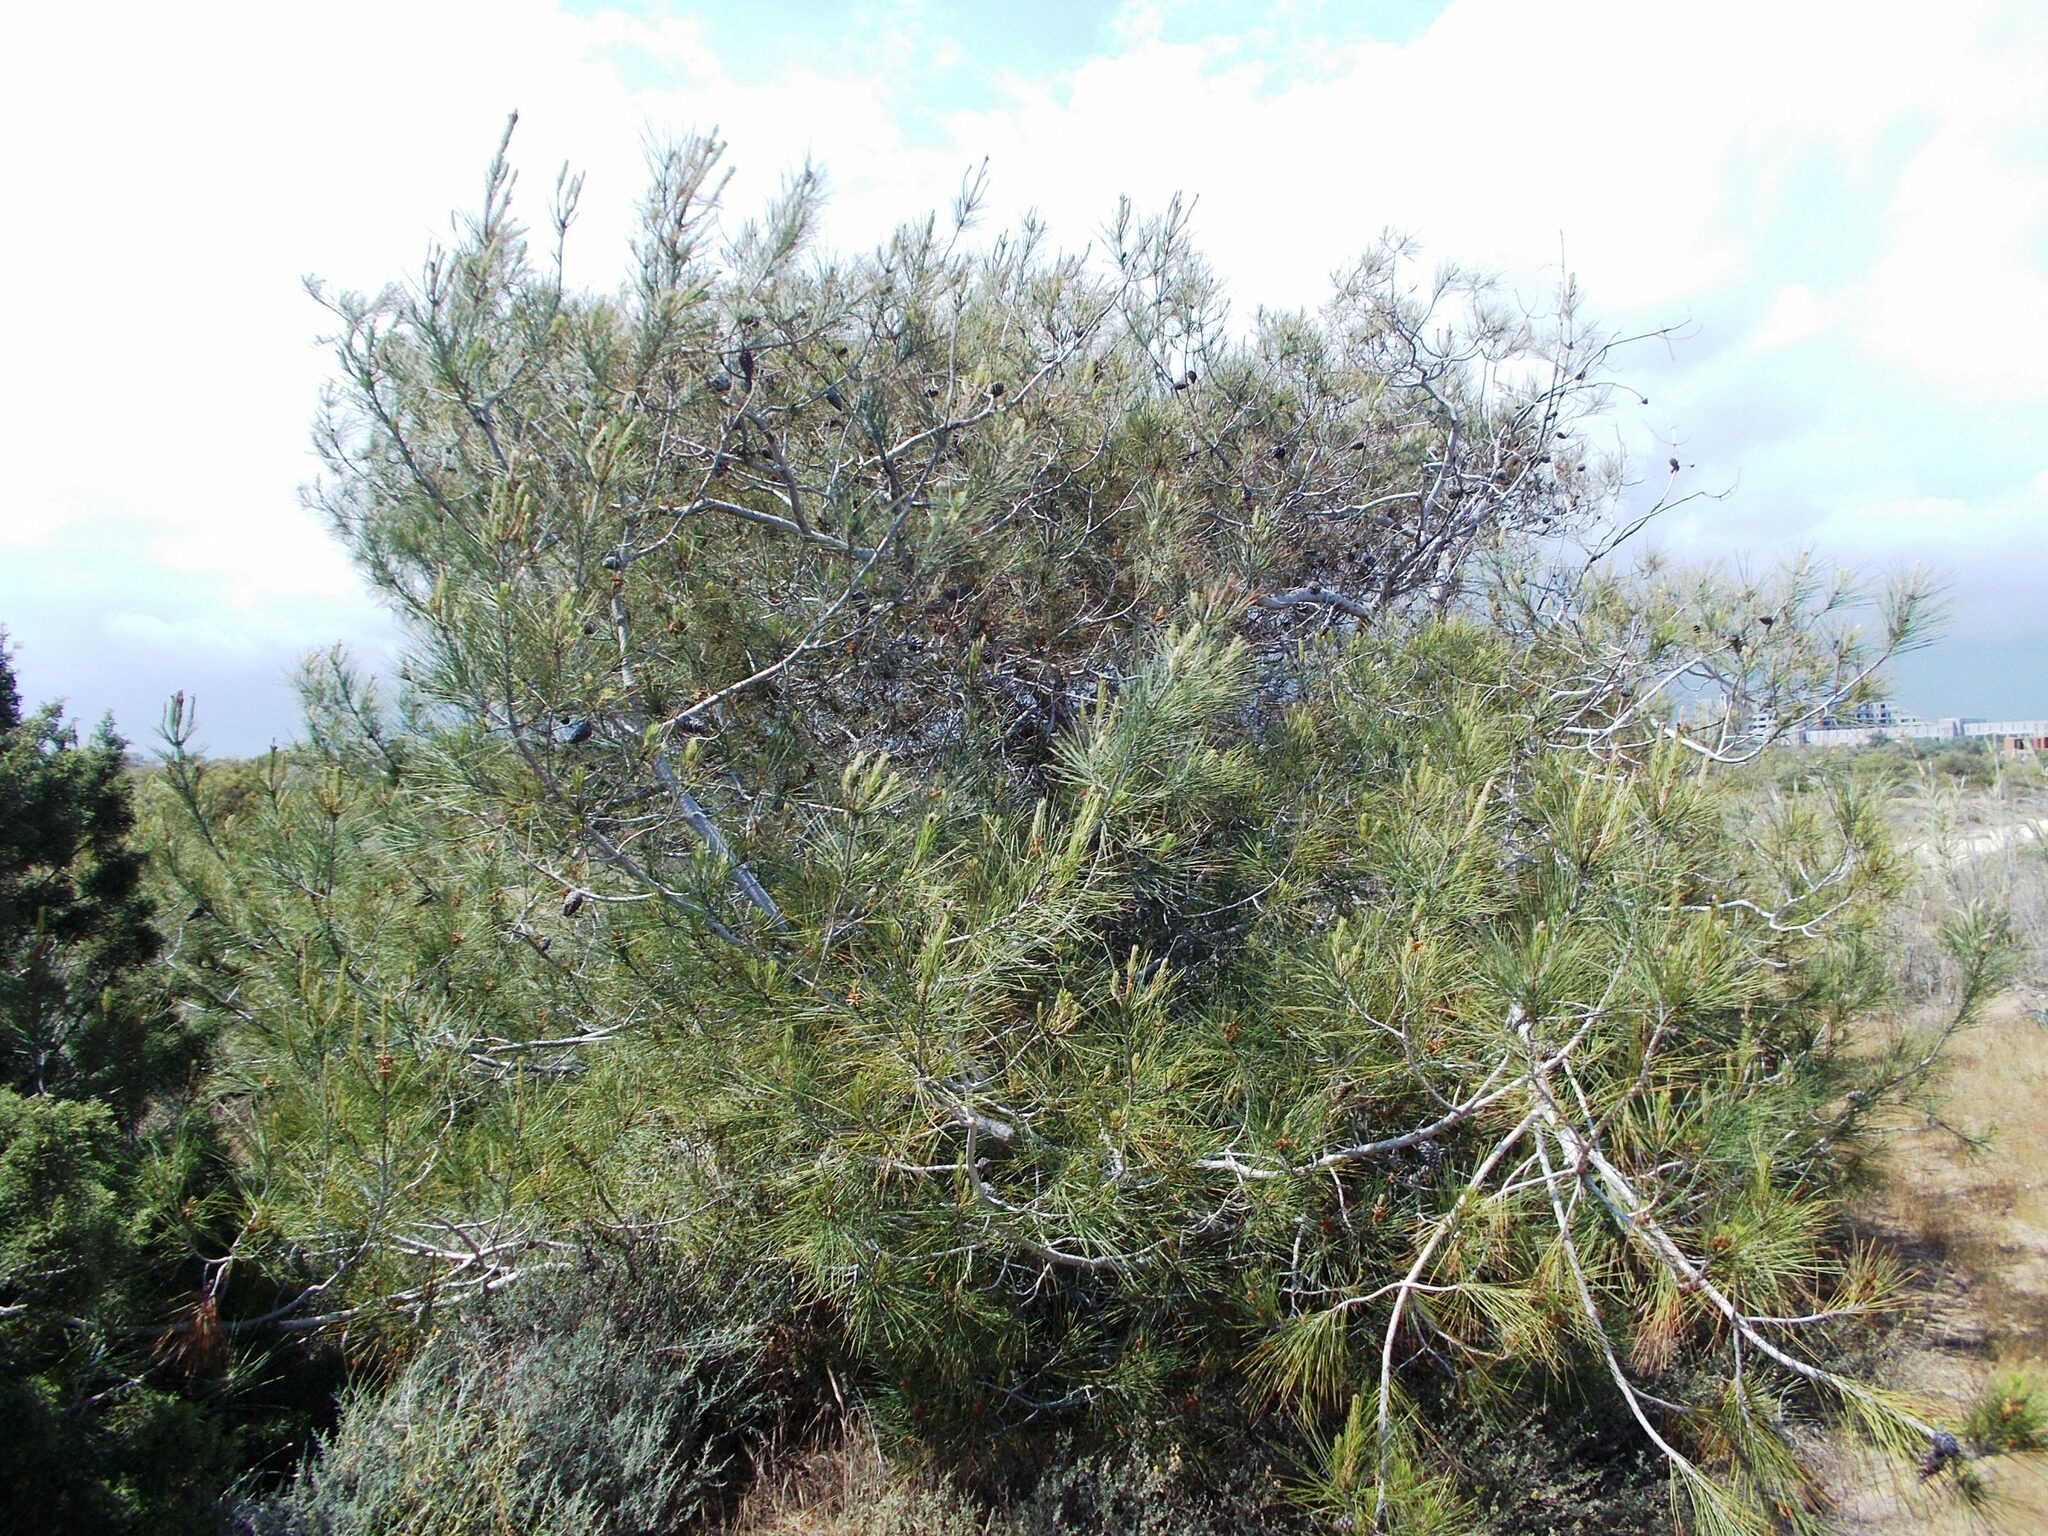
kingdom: Plantae
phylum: Tracheophyta
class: Pinopsida
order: Pinales
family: Pinaceae
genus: Pinus
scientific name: Pinus brutia
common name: Turkish pine
